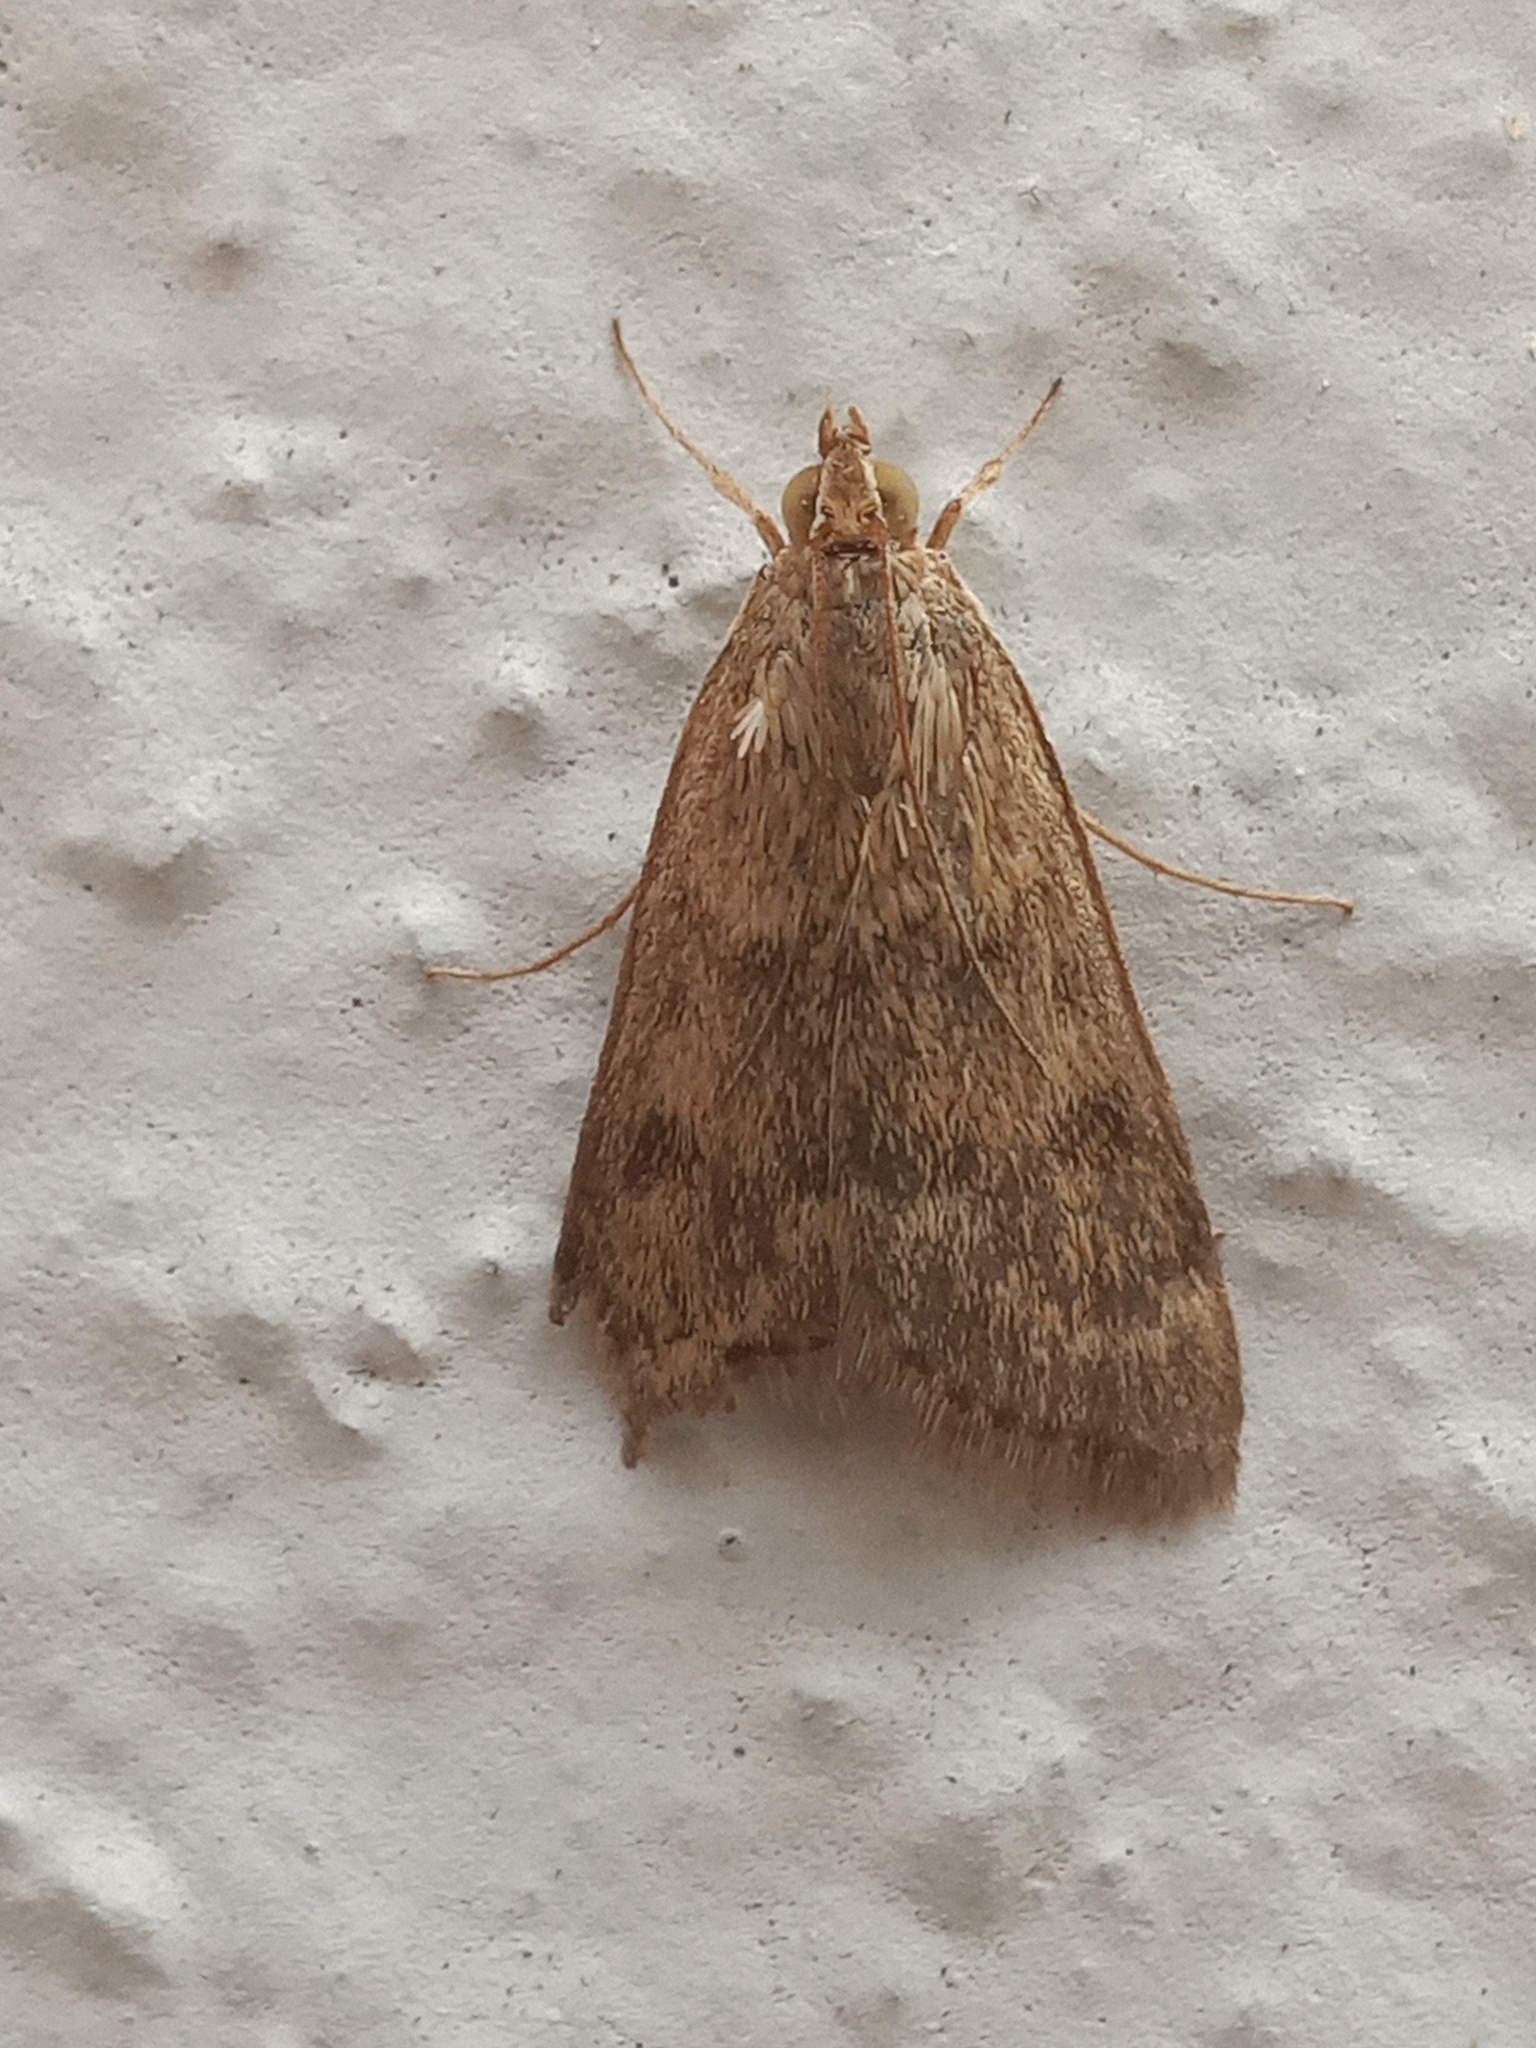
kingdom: Animalia
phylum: Arthropoda
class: Insecta
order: Lepidoptera
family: Crambidae
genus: Achyra
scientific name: Achyra rantalis
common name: Garden webworm
